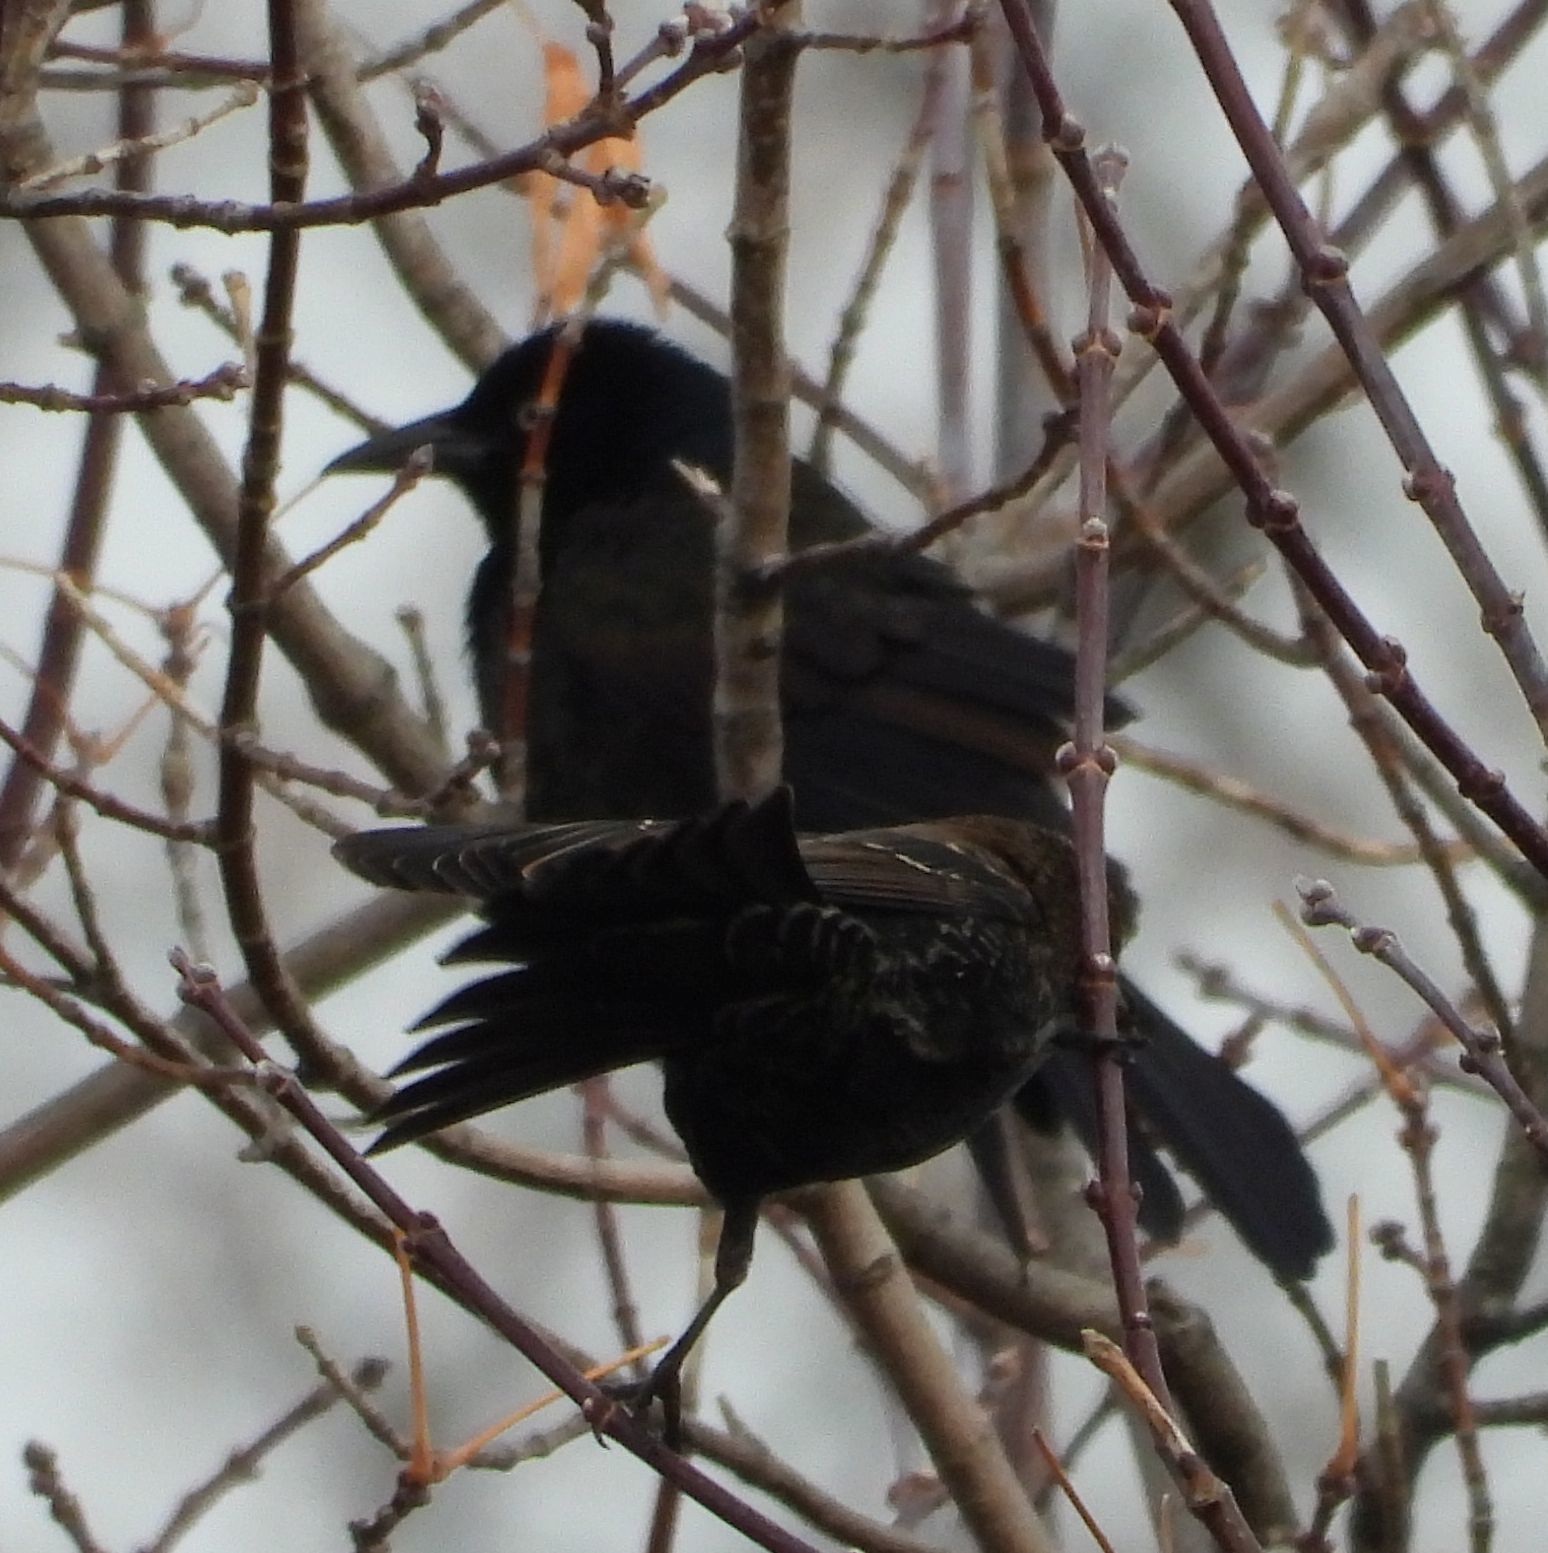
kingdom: Animalia
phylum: Chordata
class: Aves
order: Passeriformes
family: Icteridae
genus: Quiscalus
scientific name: Quiscalus quiscula
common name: Common grackle
